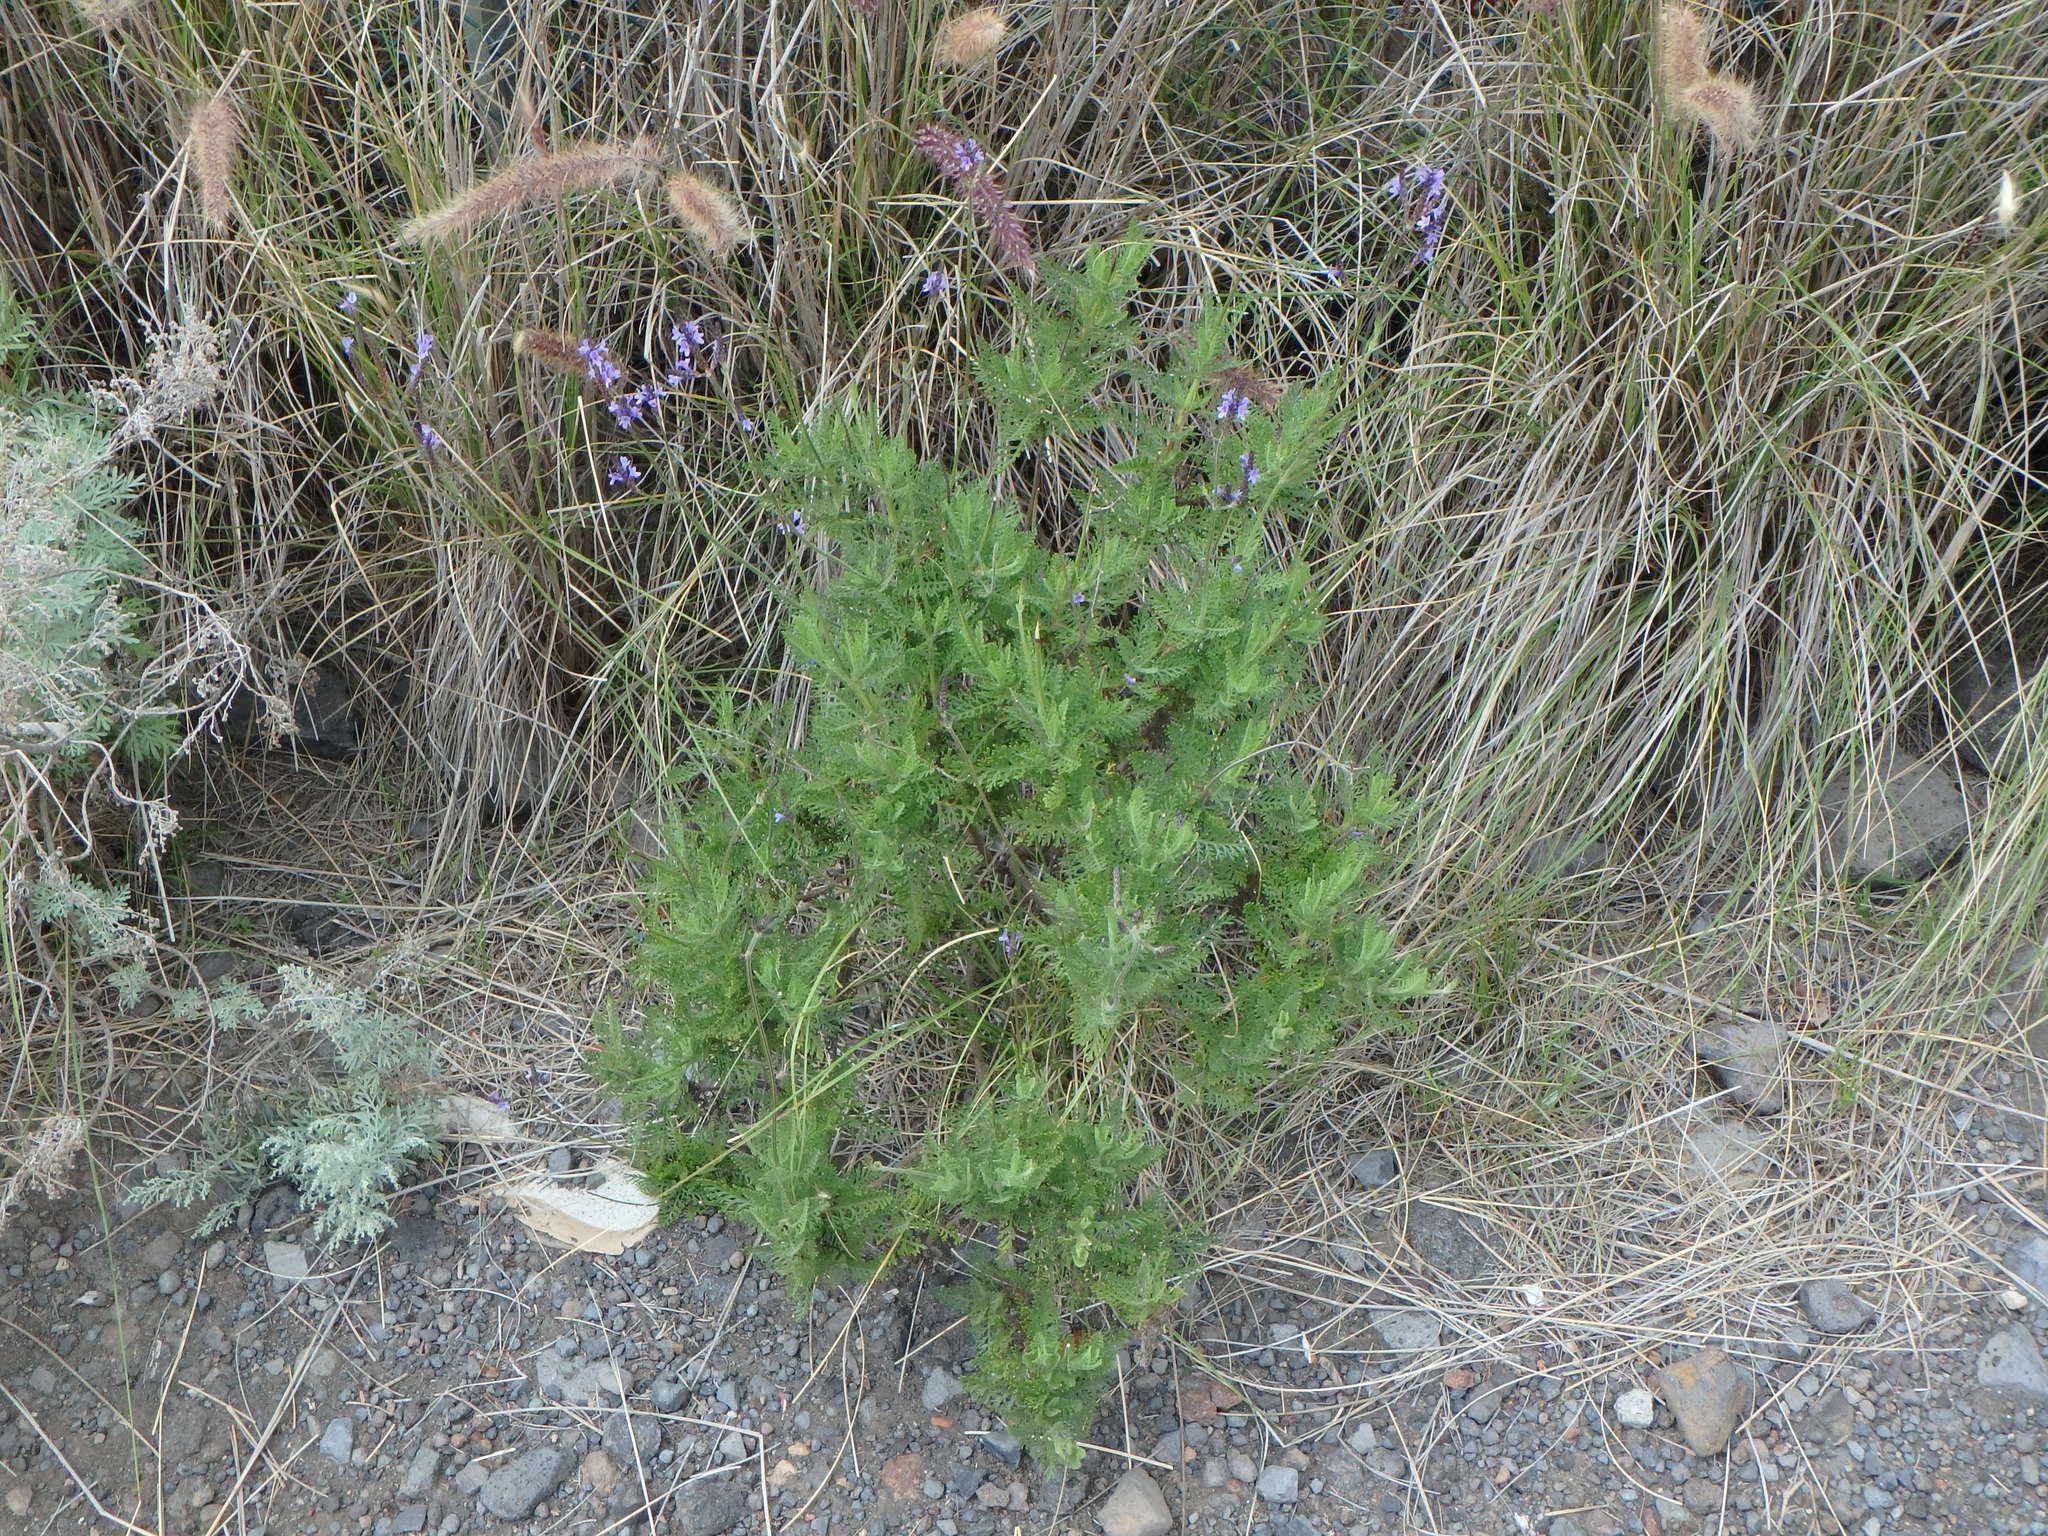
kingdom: Plantae
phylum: Tracheophyta
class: Magnoliopsida
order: Lamiales
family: Lamiaceae
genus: Lavandula
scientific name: Lavandula canariensis
